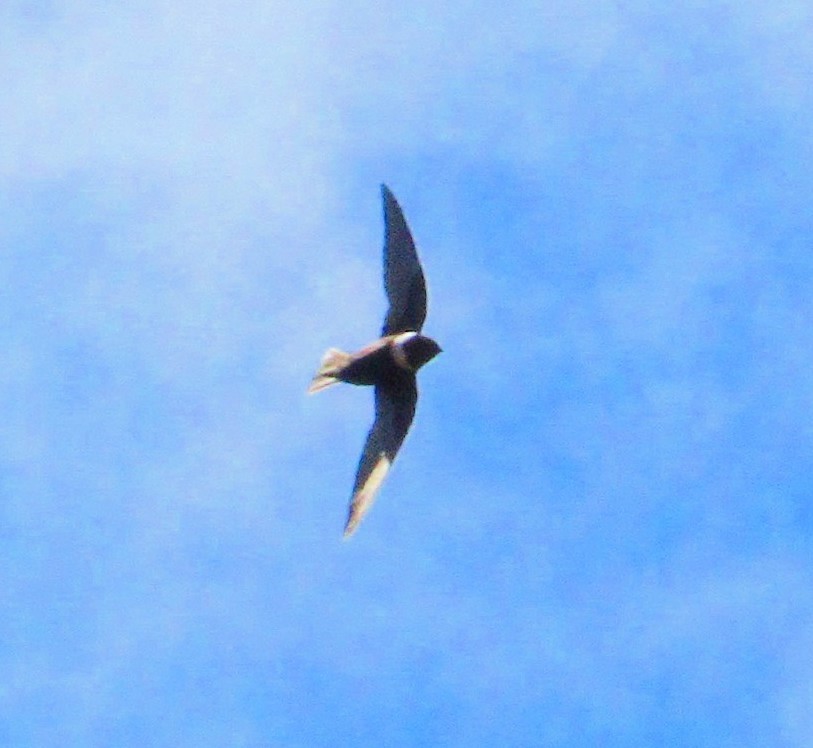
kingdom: Animalia
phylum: Chordata
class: Aves
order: Apodiformes
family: Apodidae
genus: Streptoprocne
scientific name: Streptoprocne zonaris
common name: White-collared swift
